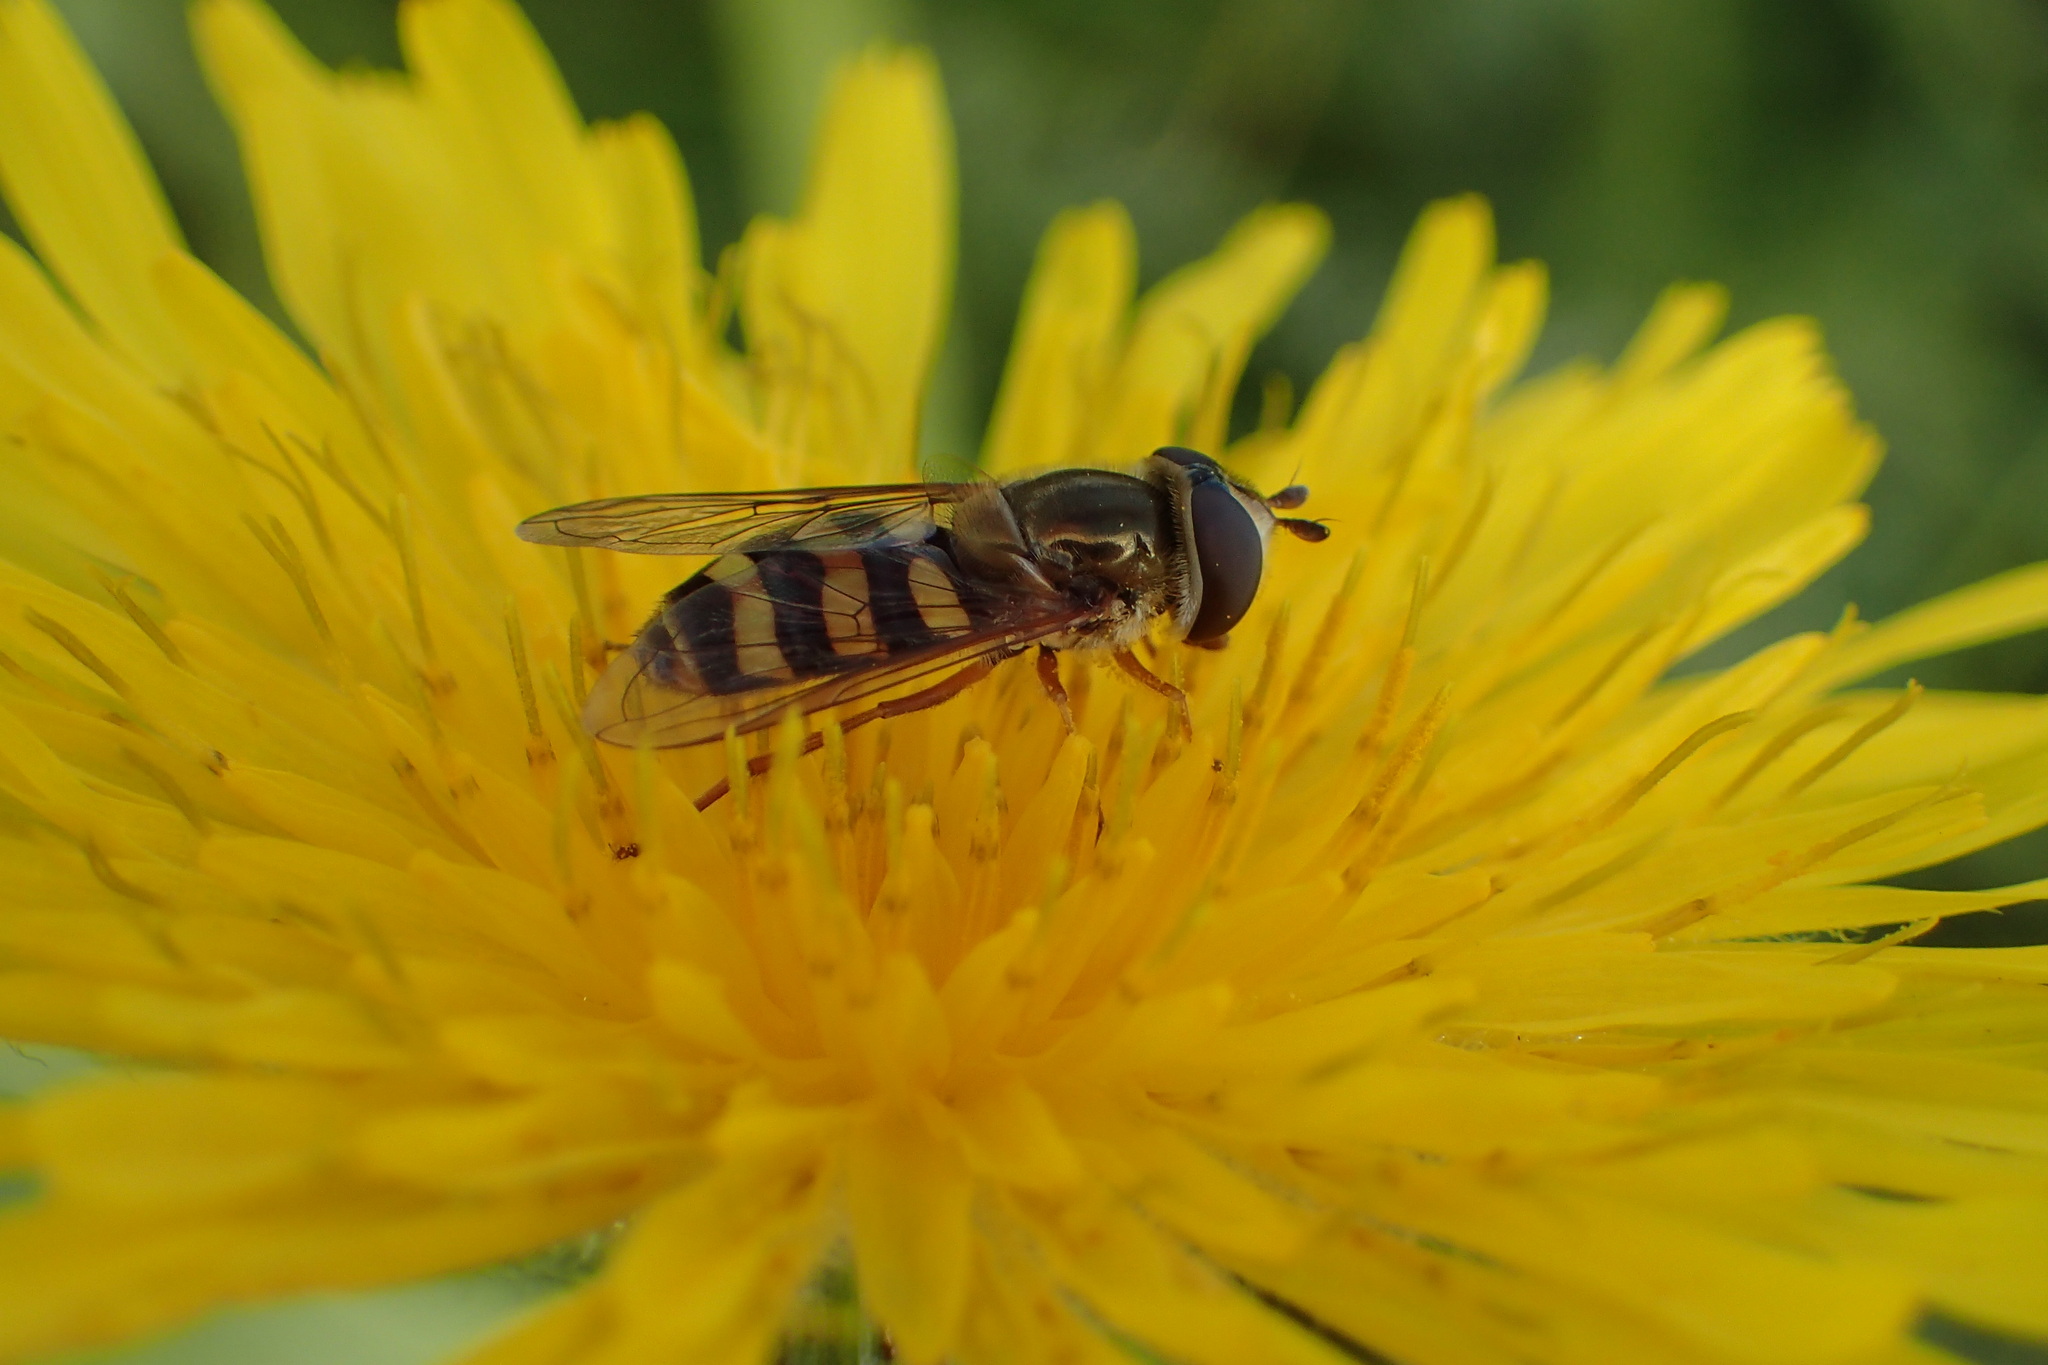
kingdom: Animalia
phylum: Arthropoda
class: Insecta
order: Diptera
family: Syrphidae
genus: Eupeodes
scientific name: Eupeodes
